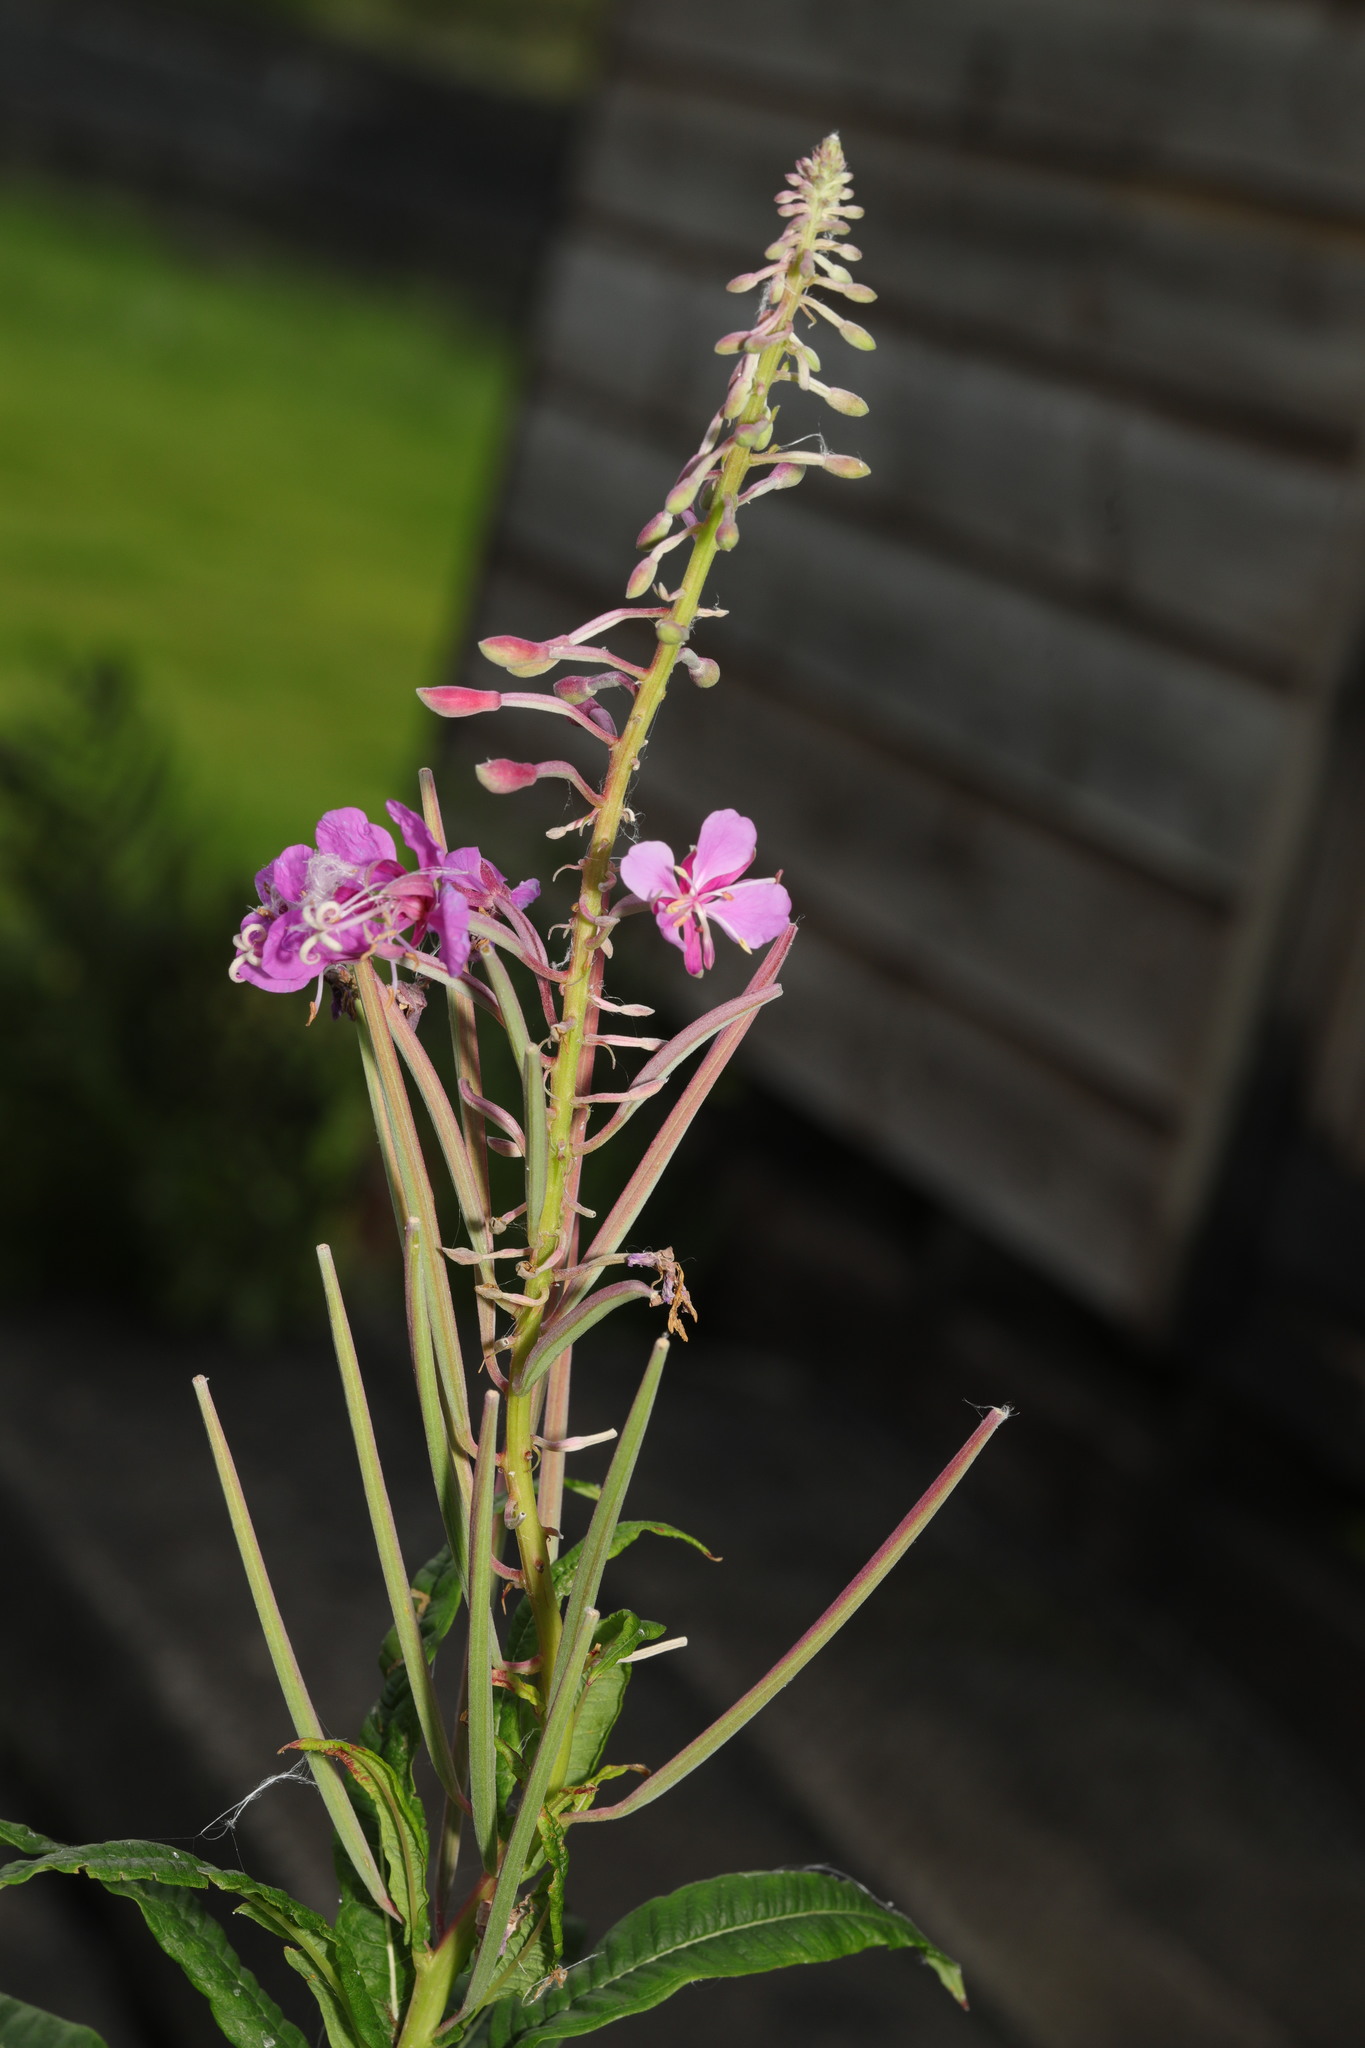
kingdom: Plantae
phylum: Tracheophyta
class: Magnoliopsida
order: Myrtales
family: Onagraceae
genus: Chamaenerion
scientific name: Chamaenerion angustifolium
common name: Fireweed
